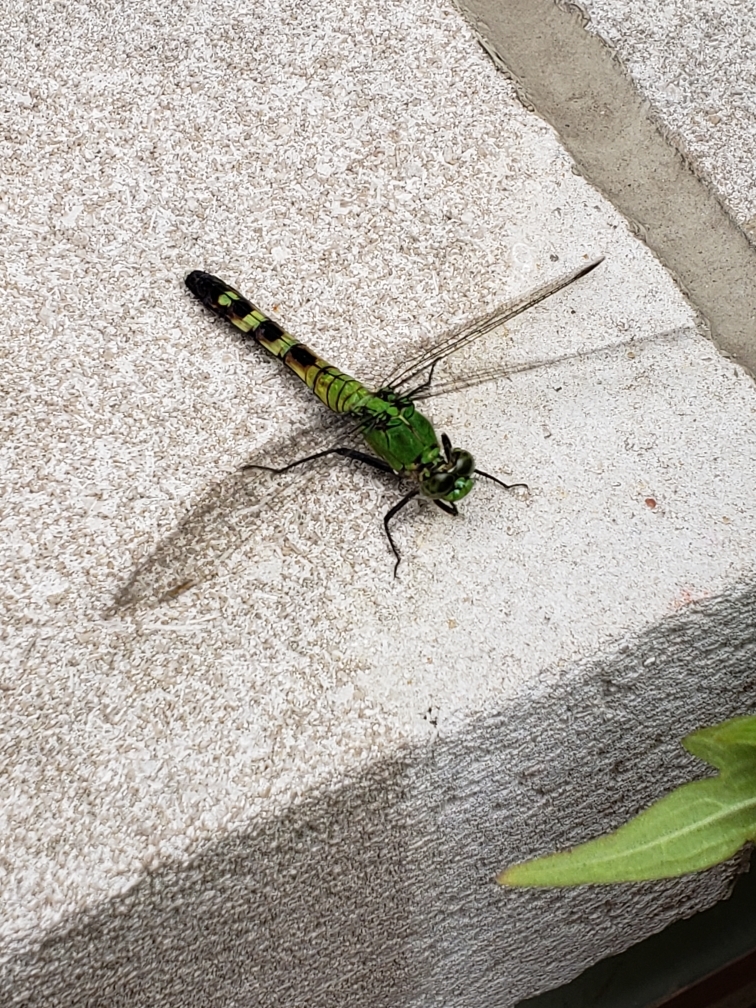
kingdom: Animalia
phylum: Arthropoda
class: Insecta
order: Odonata
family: Libellulidae
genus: Erythemis
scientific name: Erythemis simplicicollis
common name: Eastern pondhawk
